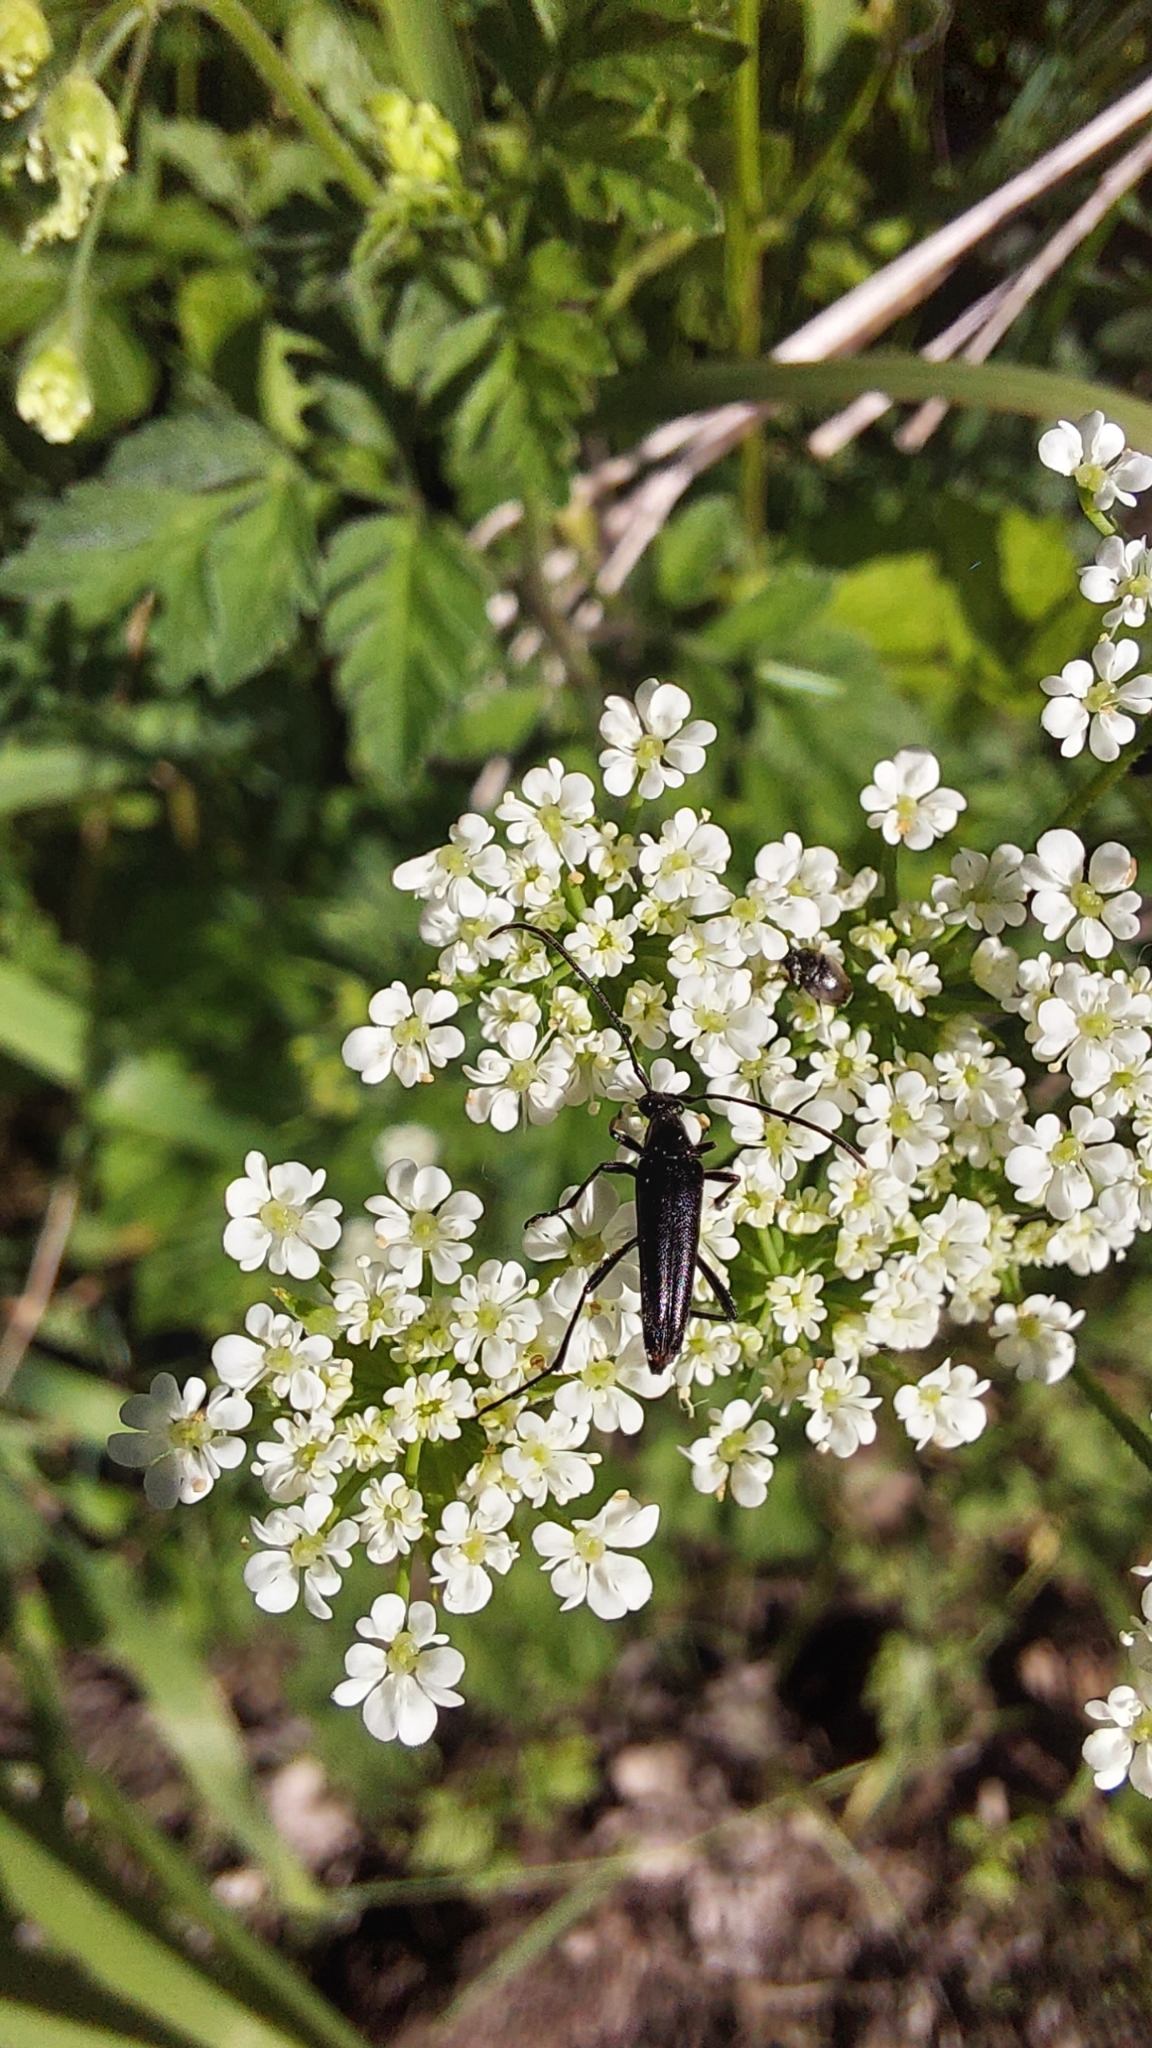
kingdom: Animalia
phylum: Arthropoda
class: Insecta
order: Coleoptera
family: Cerambycidae
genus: Stenurella
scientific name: Stenurella nigra
